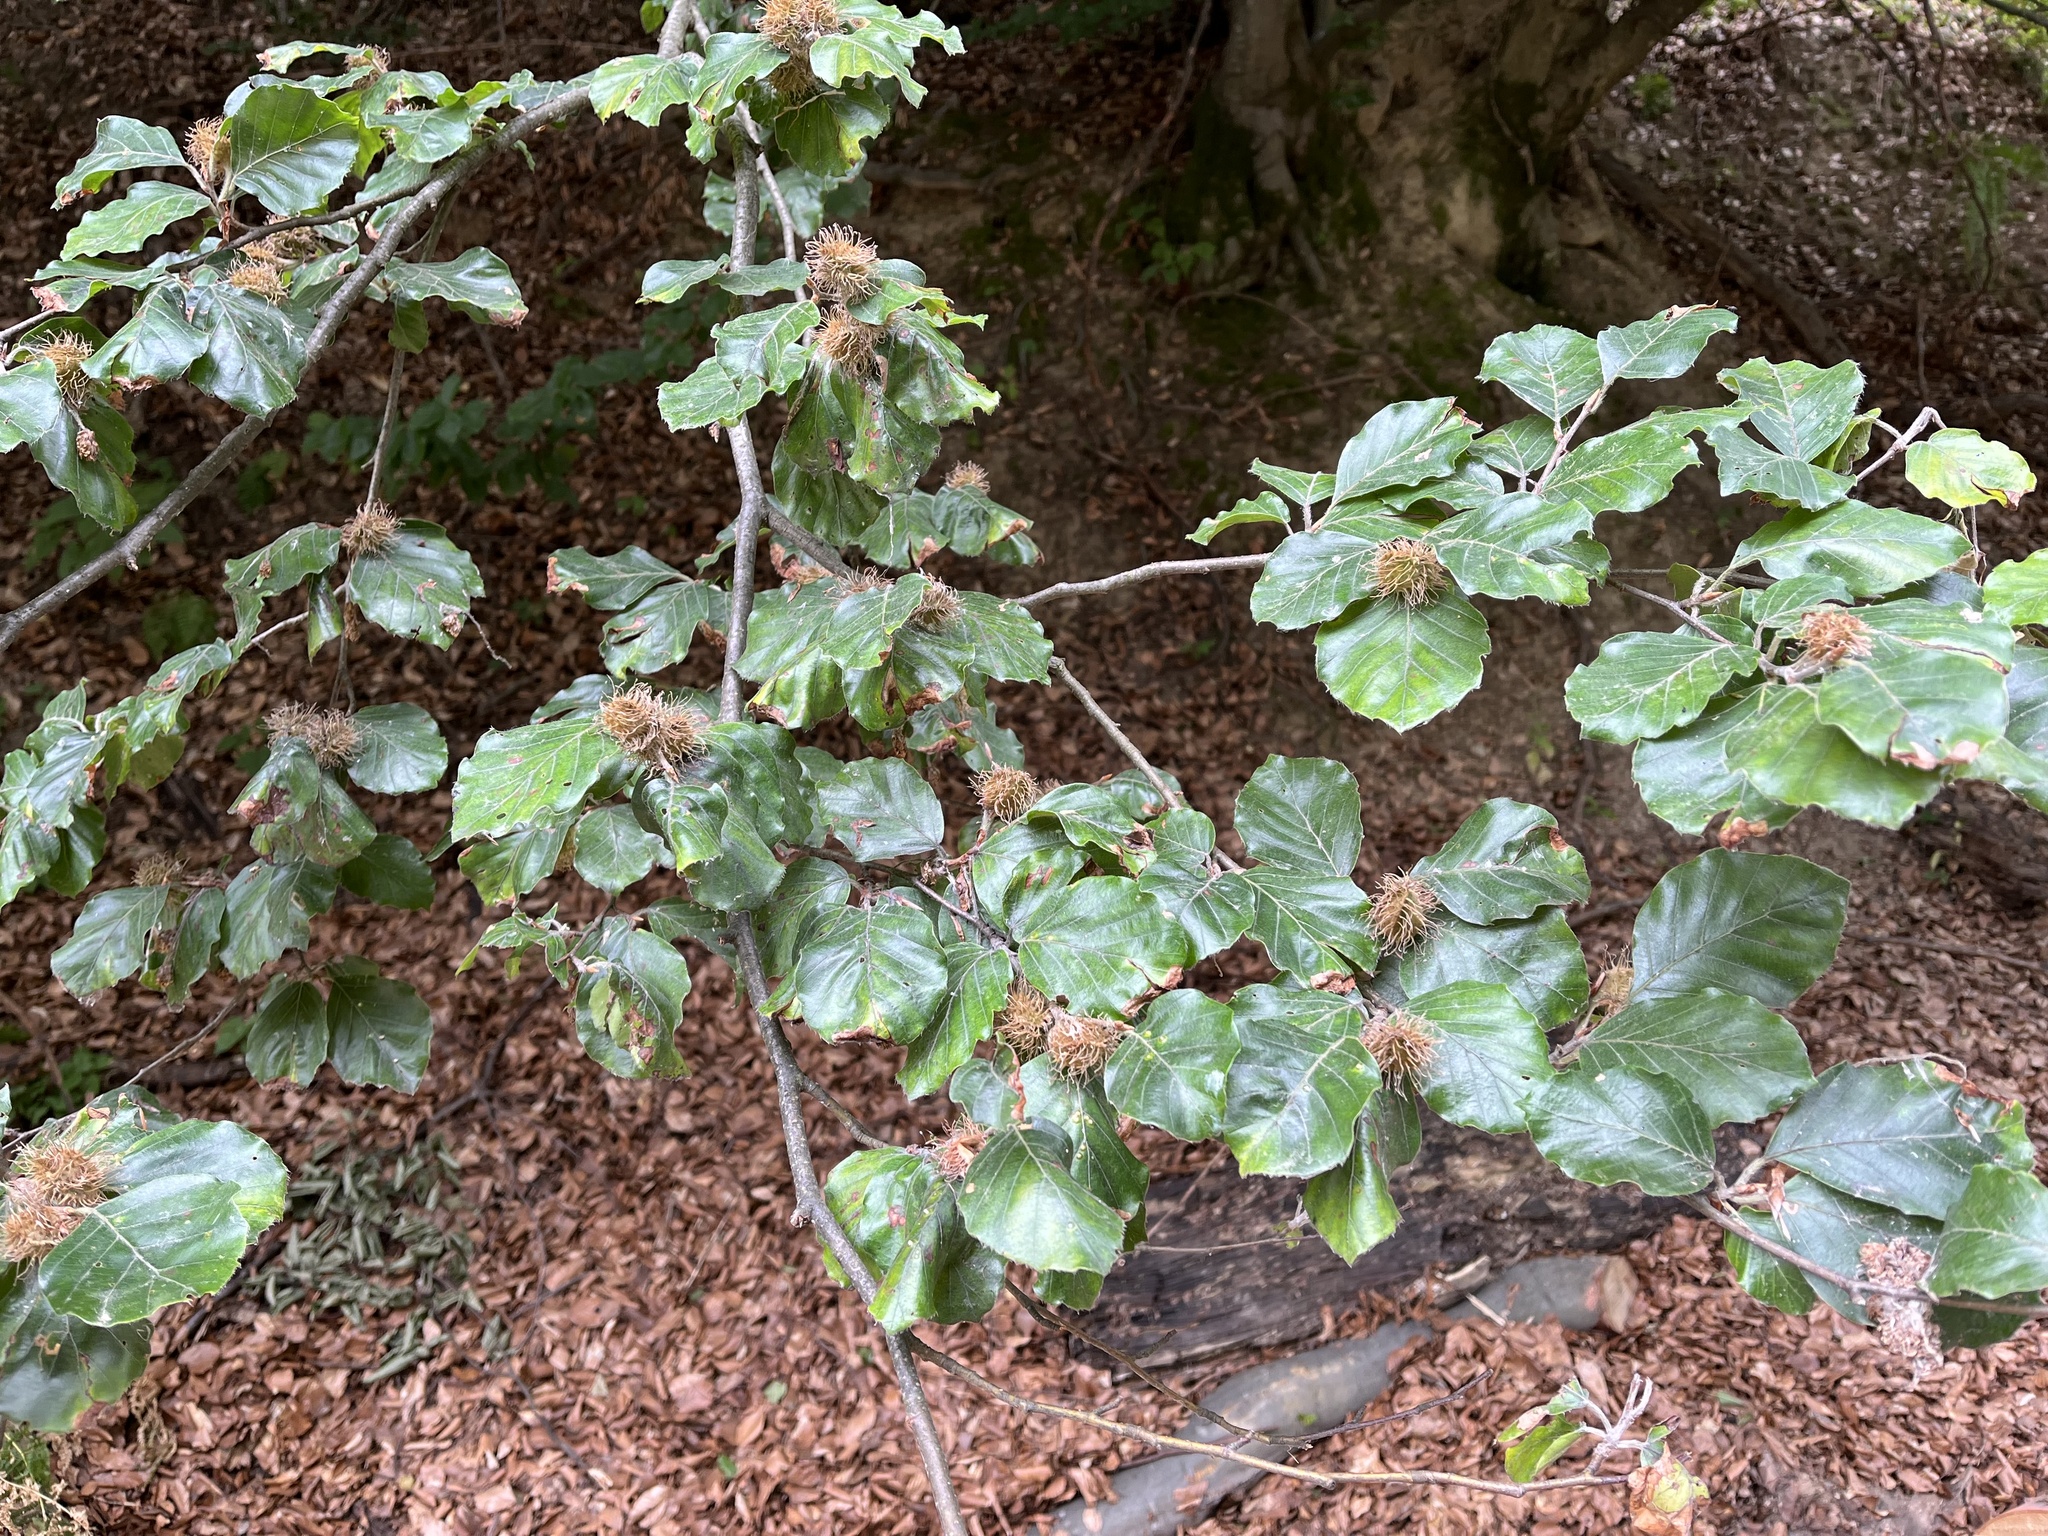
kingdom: Plantae
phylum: Tracheophyta
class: Magnoliopsida
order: Fagales
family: Fagaceae
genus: Fagus
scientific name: Fagus sylvatica
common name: Beech
